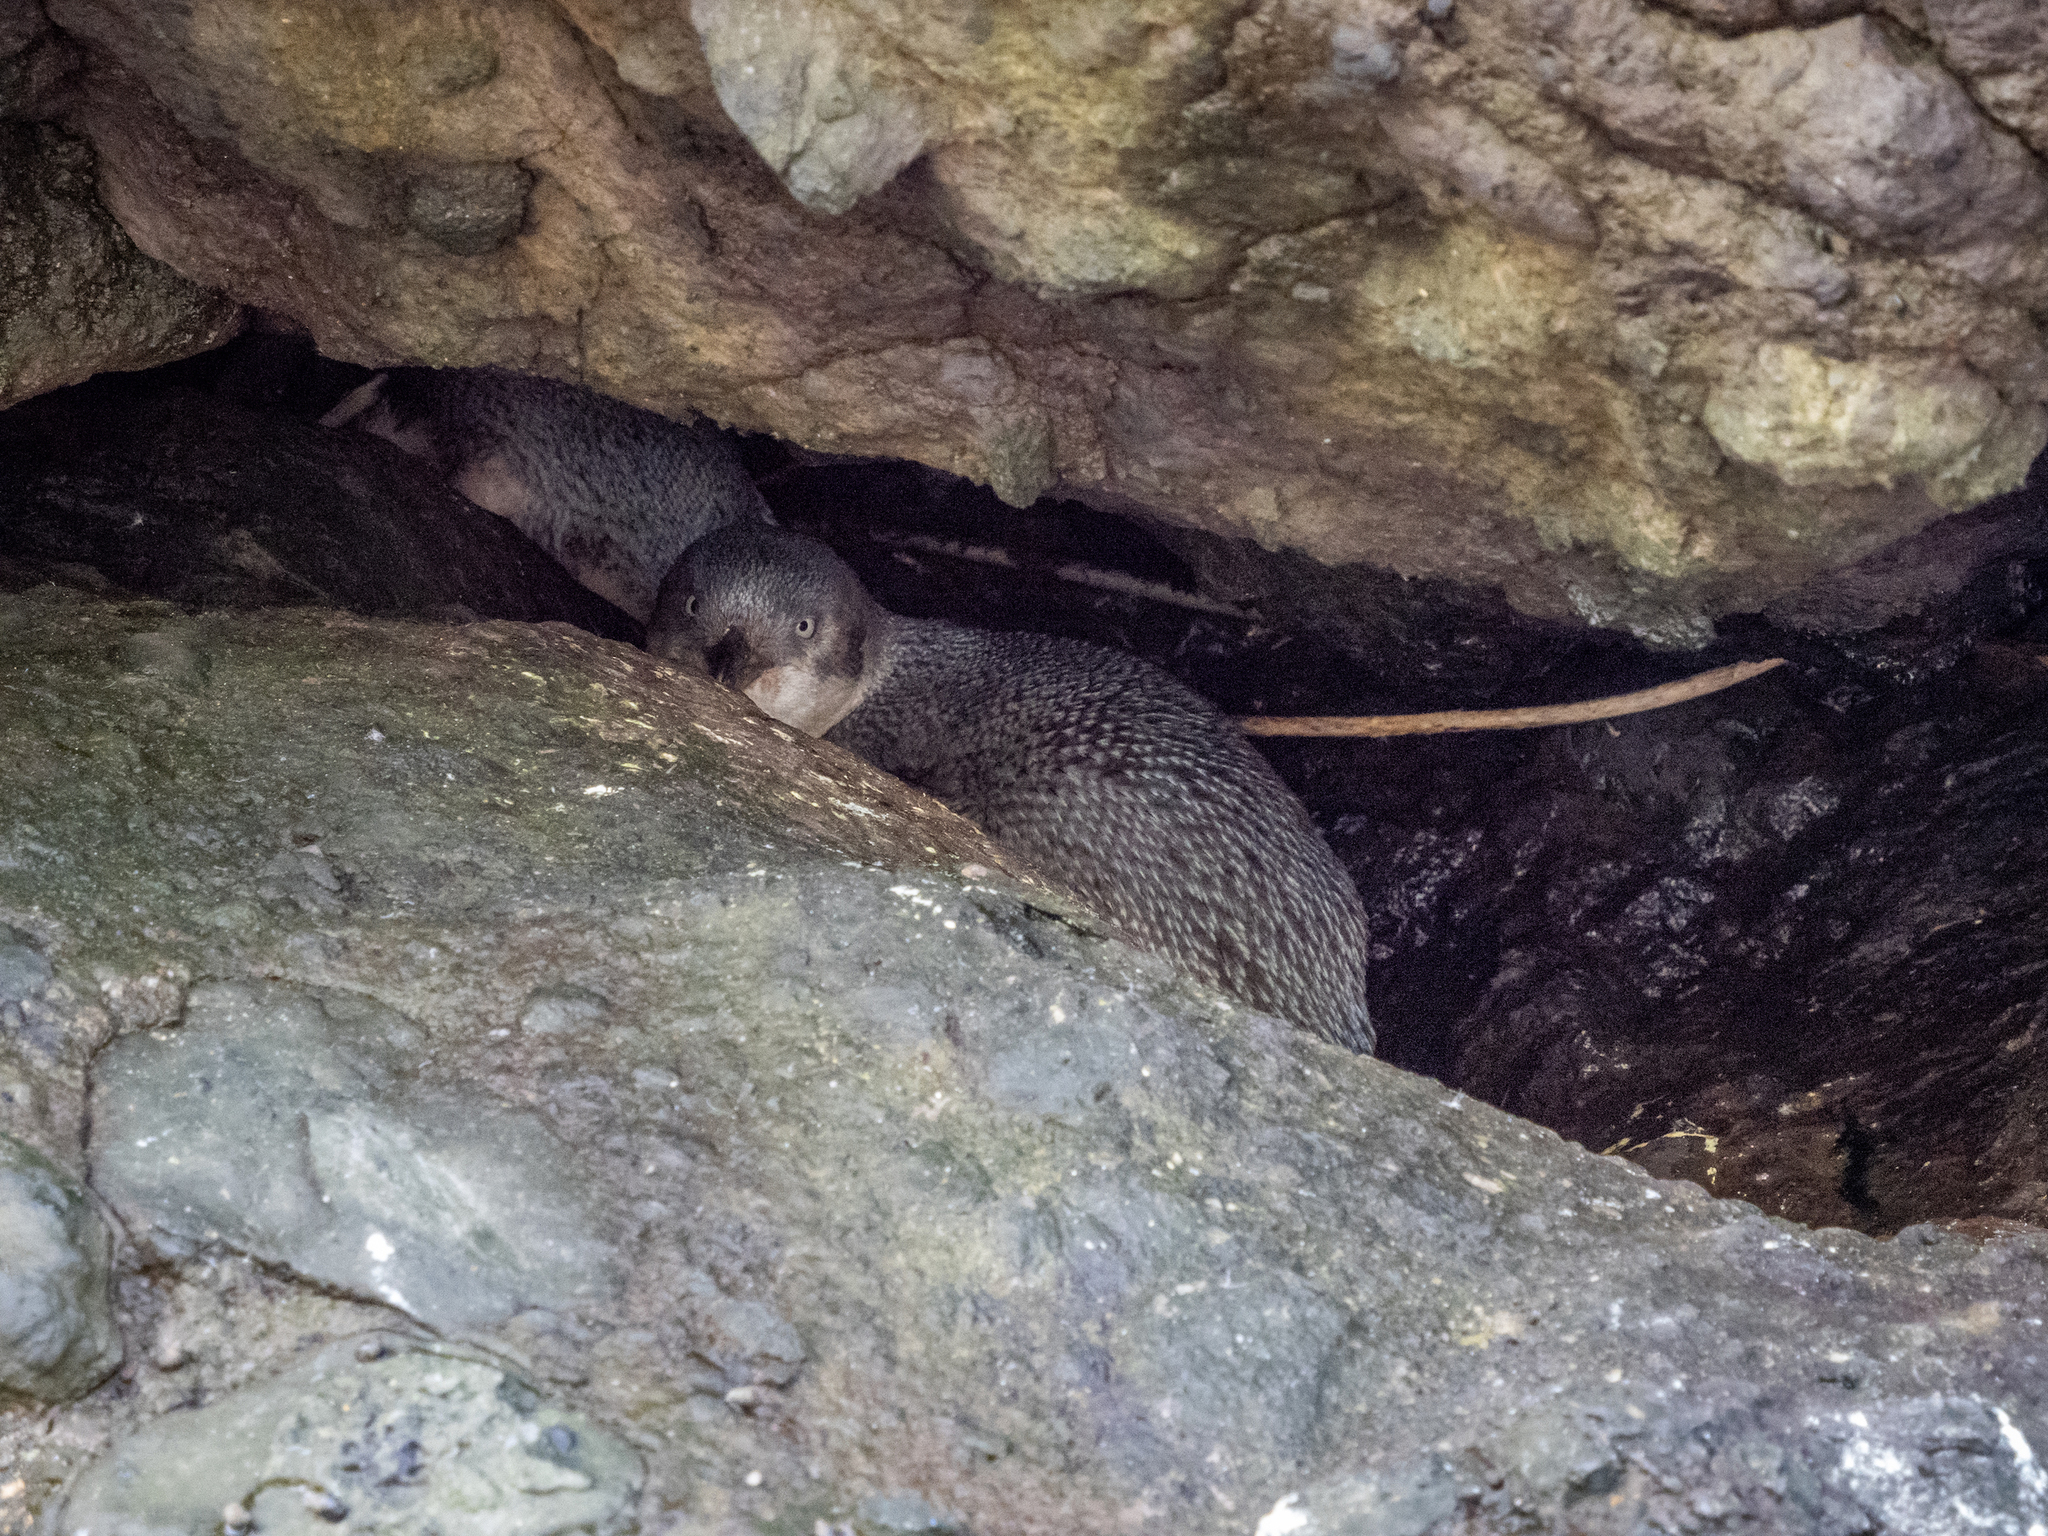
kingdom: Animalia
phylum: Chordata
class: Aves
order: Sphenisciformes
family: Spheniscidae
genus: Eudyptula
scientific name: Eudyptula minor
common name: Little penguin
